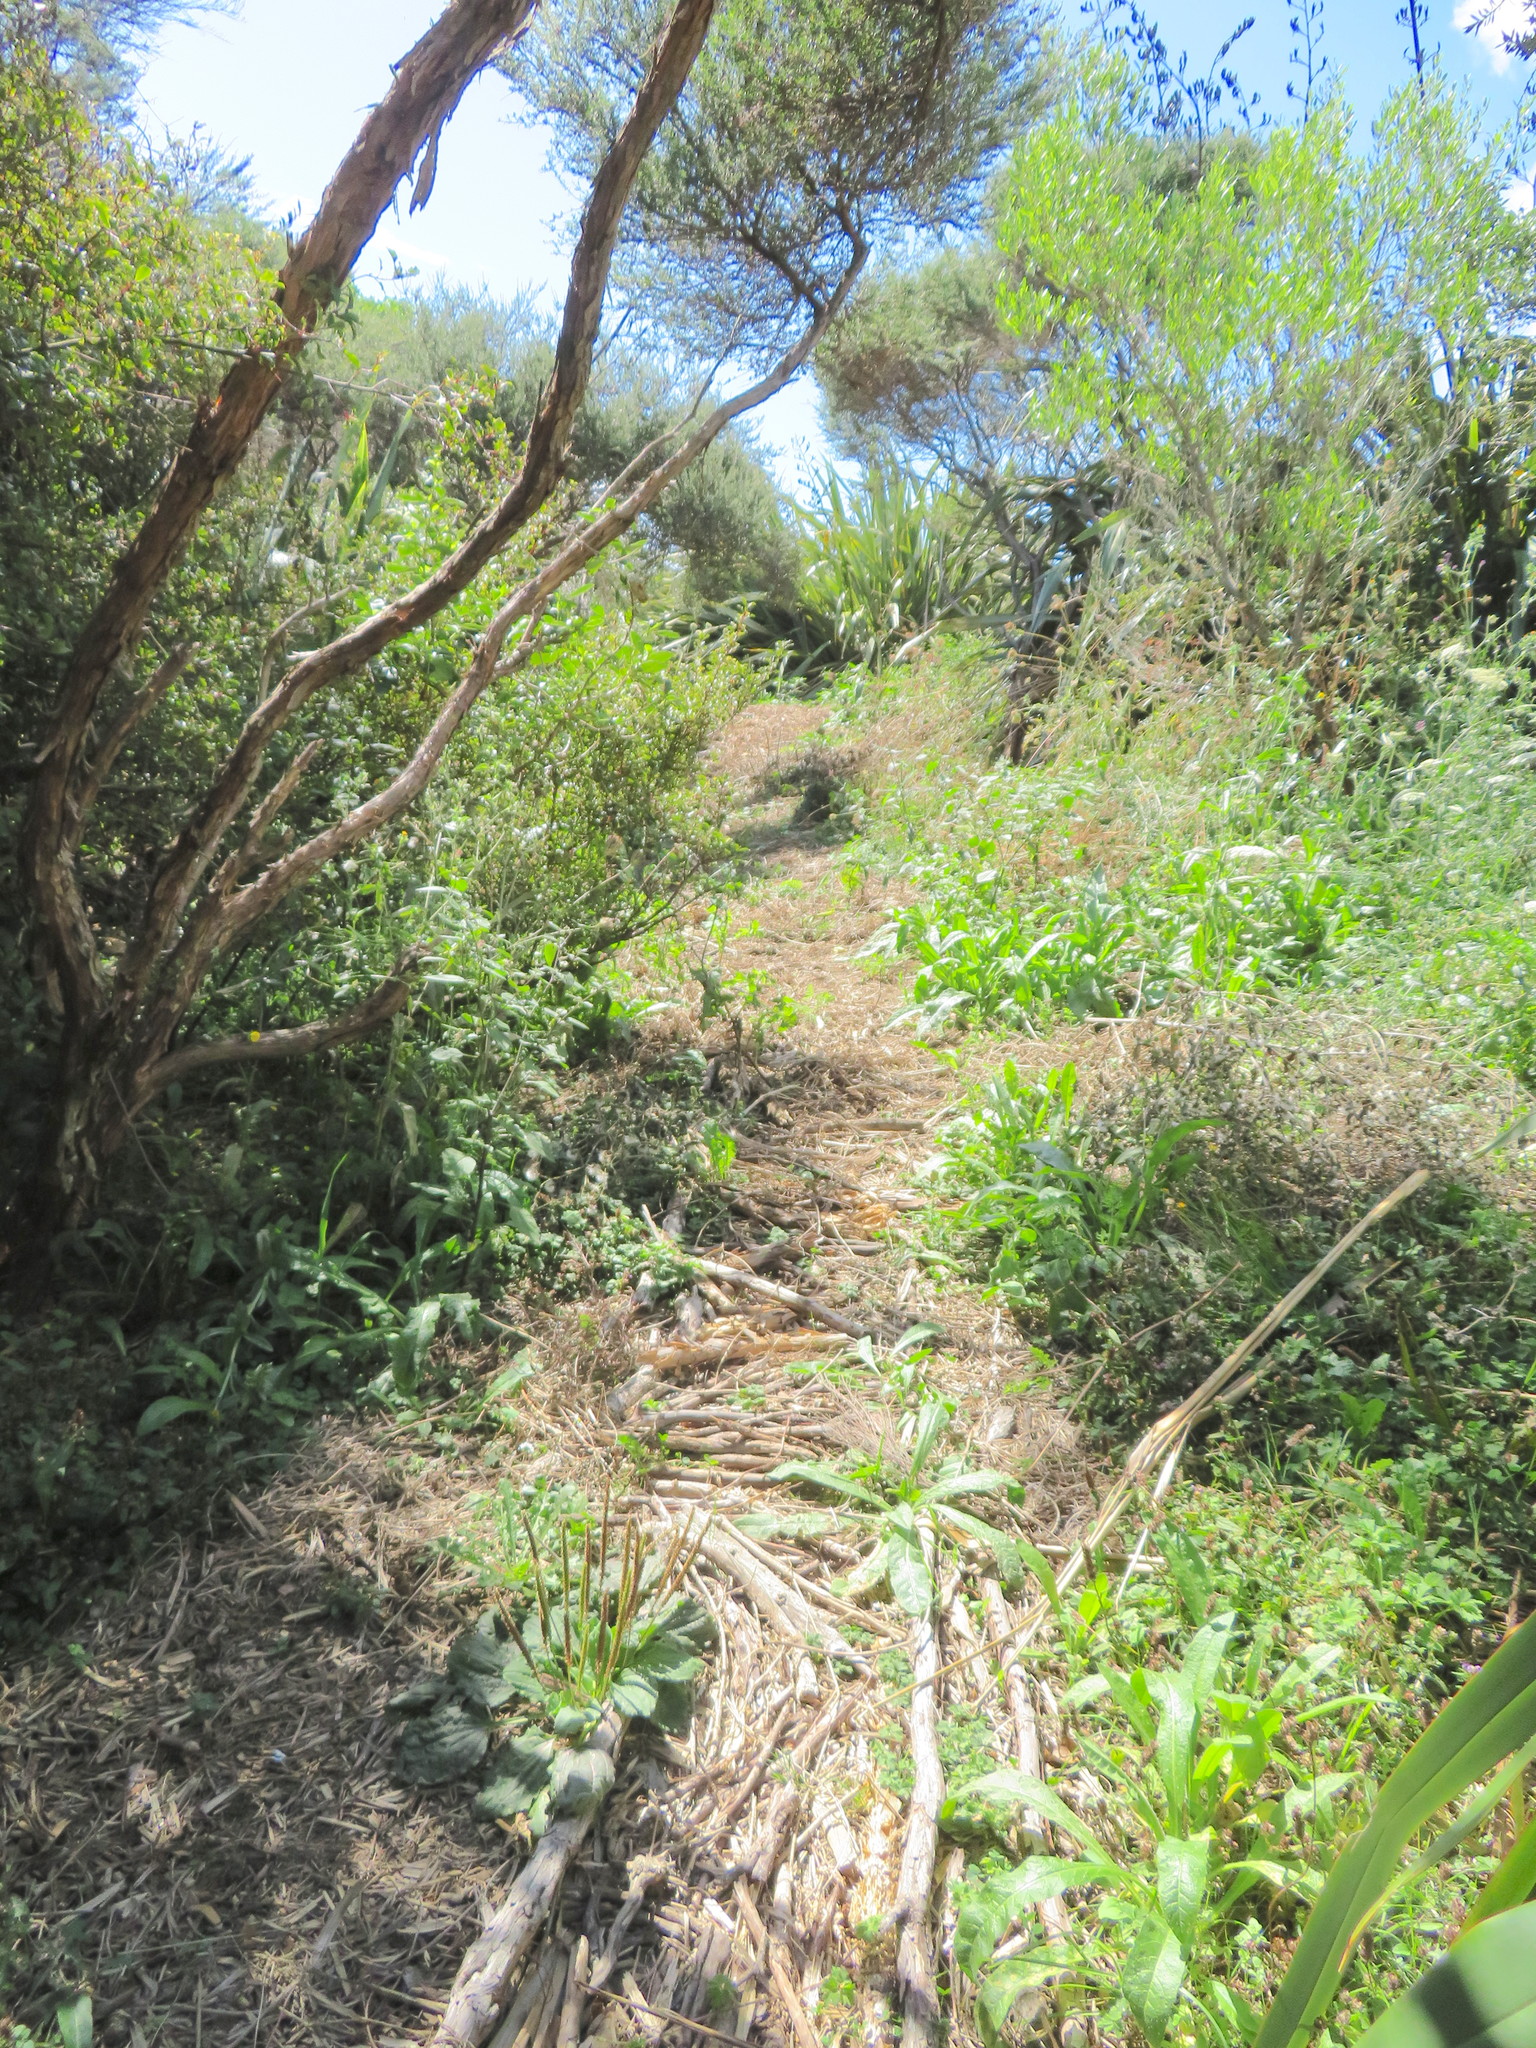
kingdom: Plantae
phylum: Tracheophyta
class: Magnoliopsida
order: Lamiales
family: Plantaginaceae
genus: Plantago
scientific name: Plantago major
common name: Common plantain
